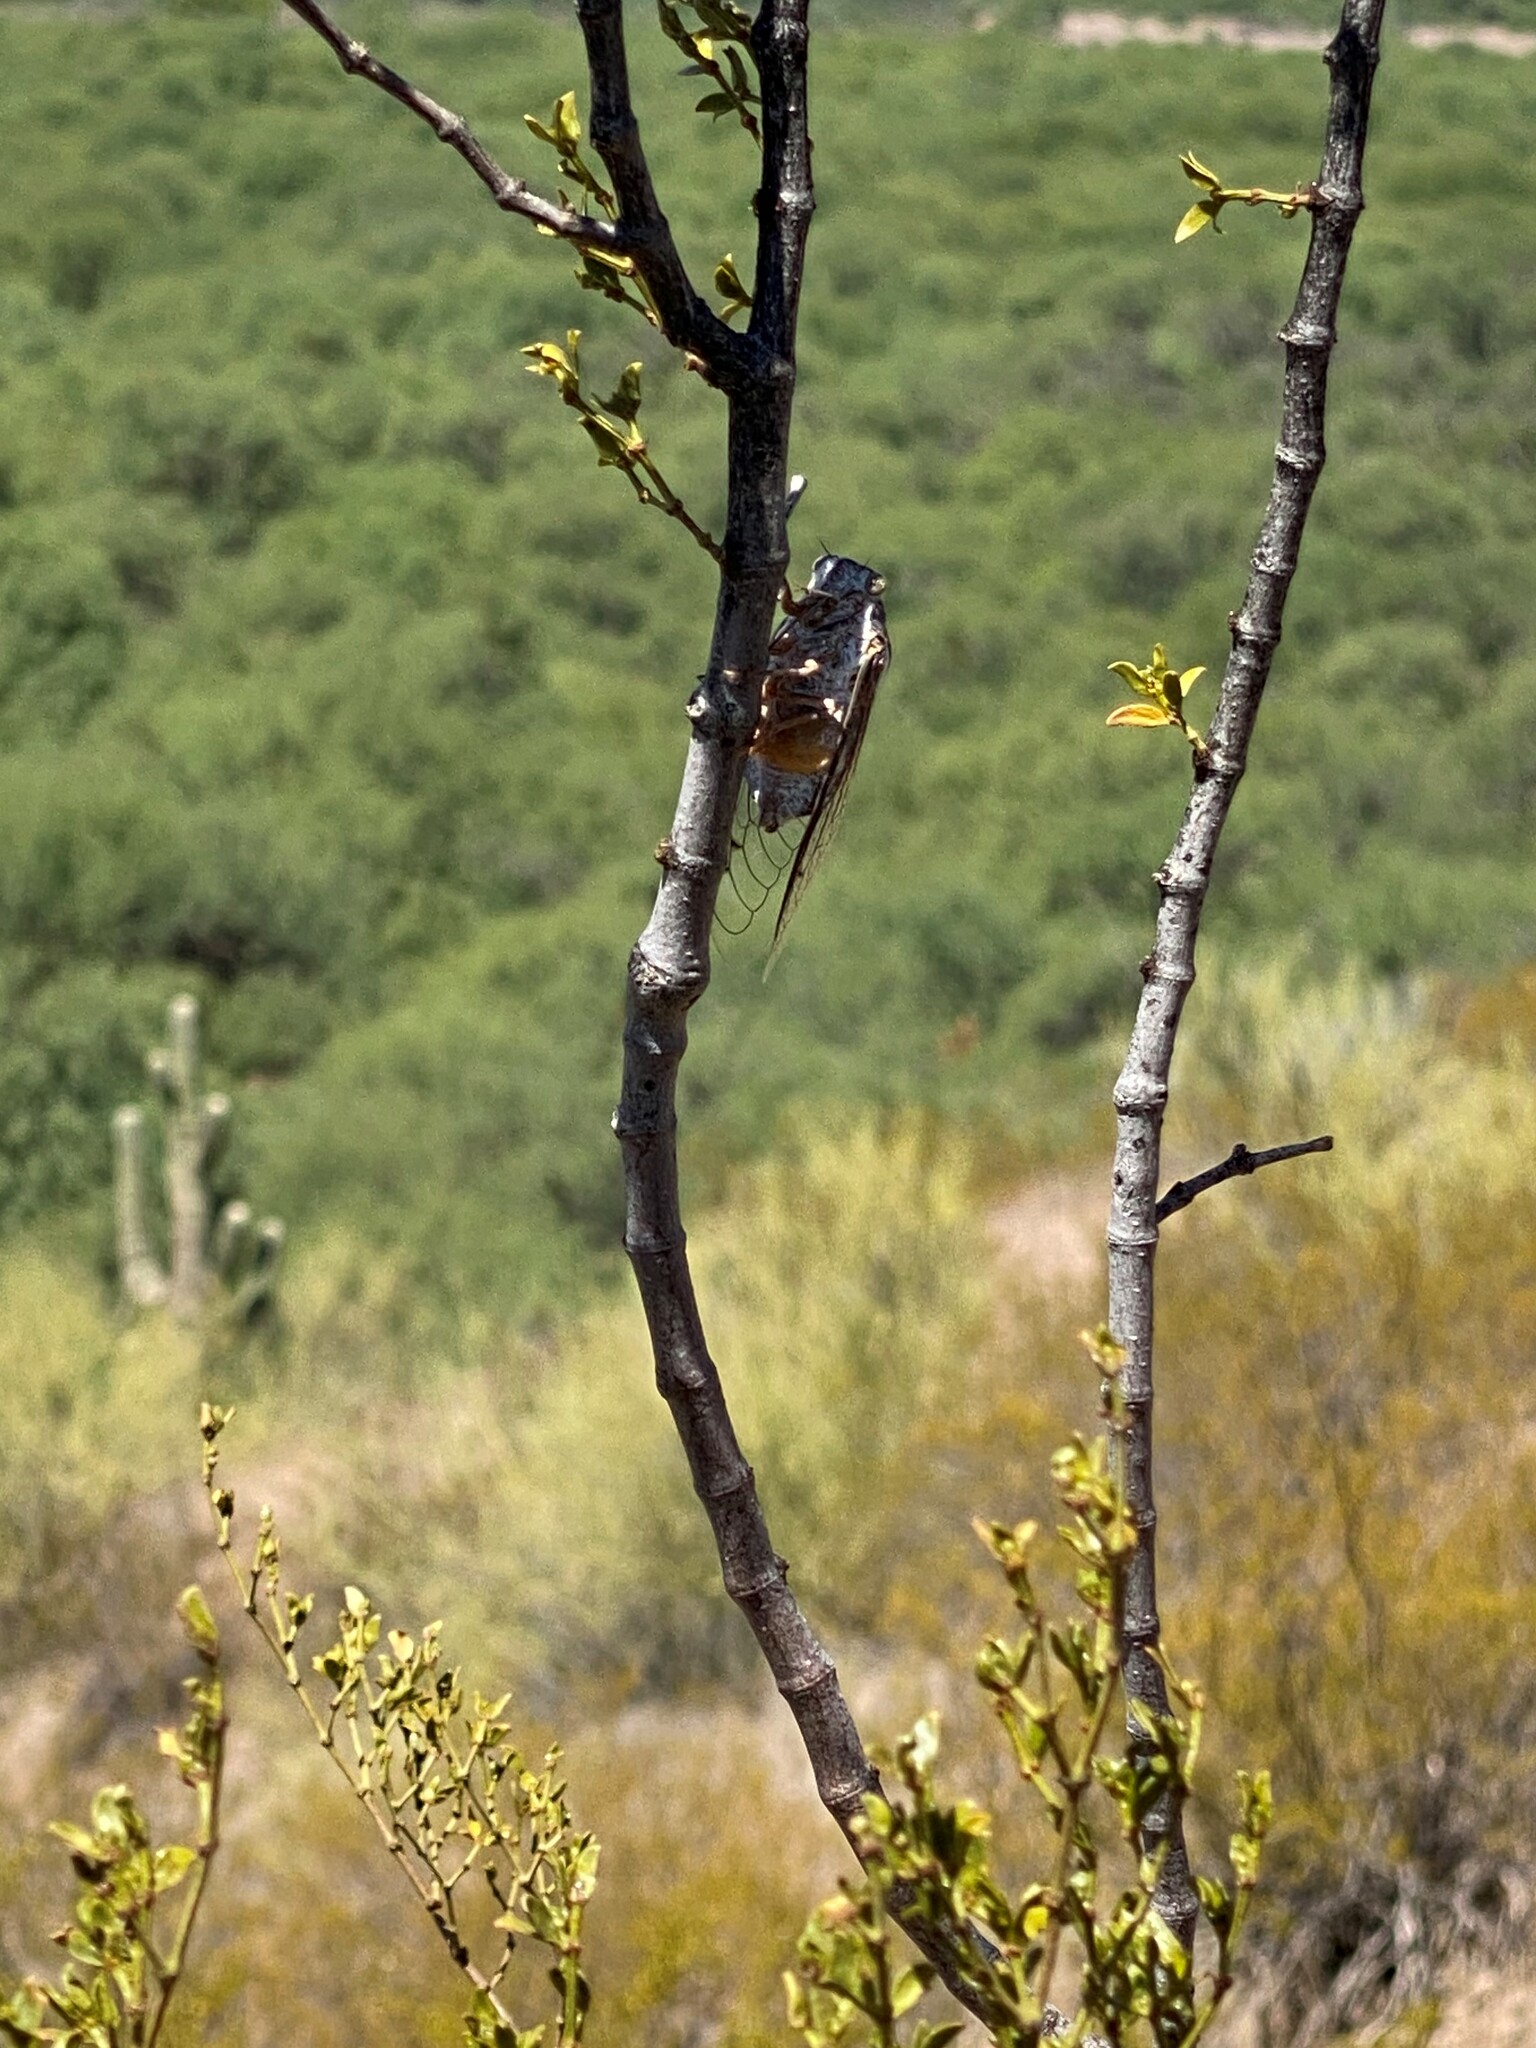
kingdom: Animalia
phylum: Arthropoda
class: Insecta
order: Hemiptera
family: Cicadidae
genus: Cacama
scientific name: Cacama moorei
